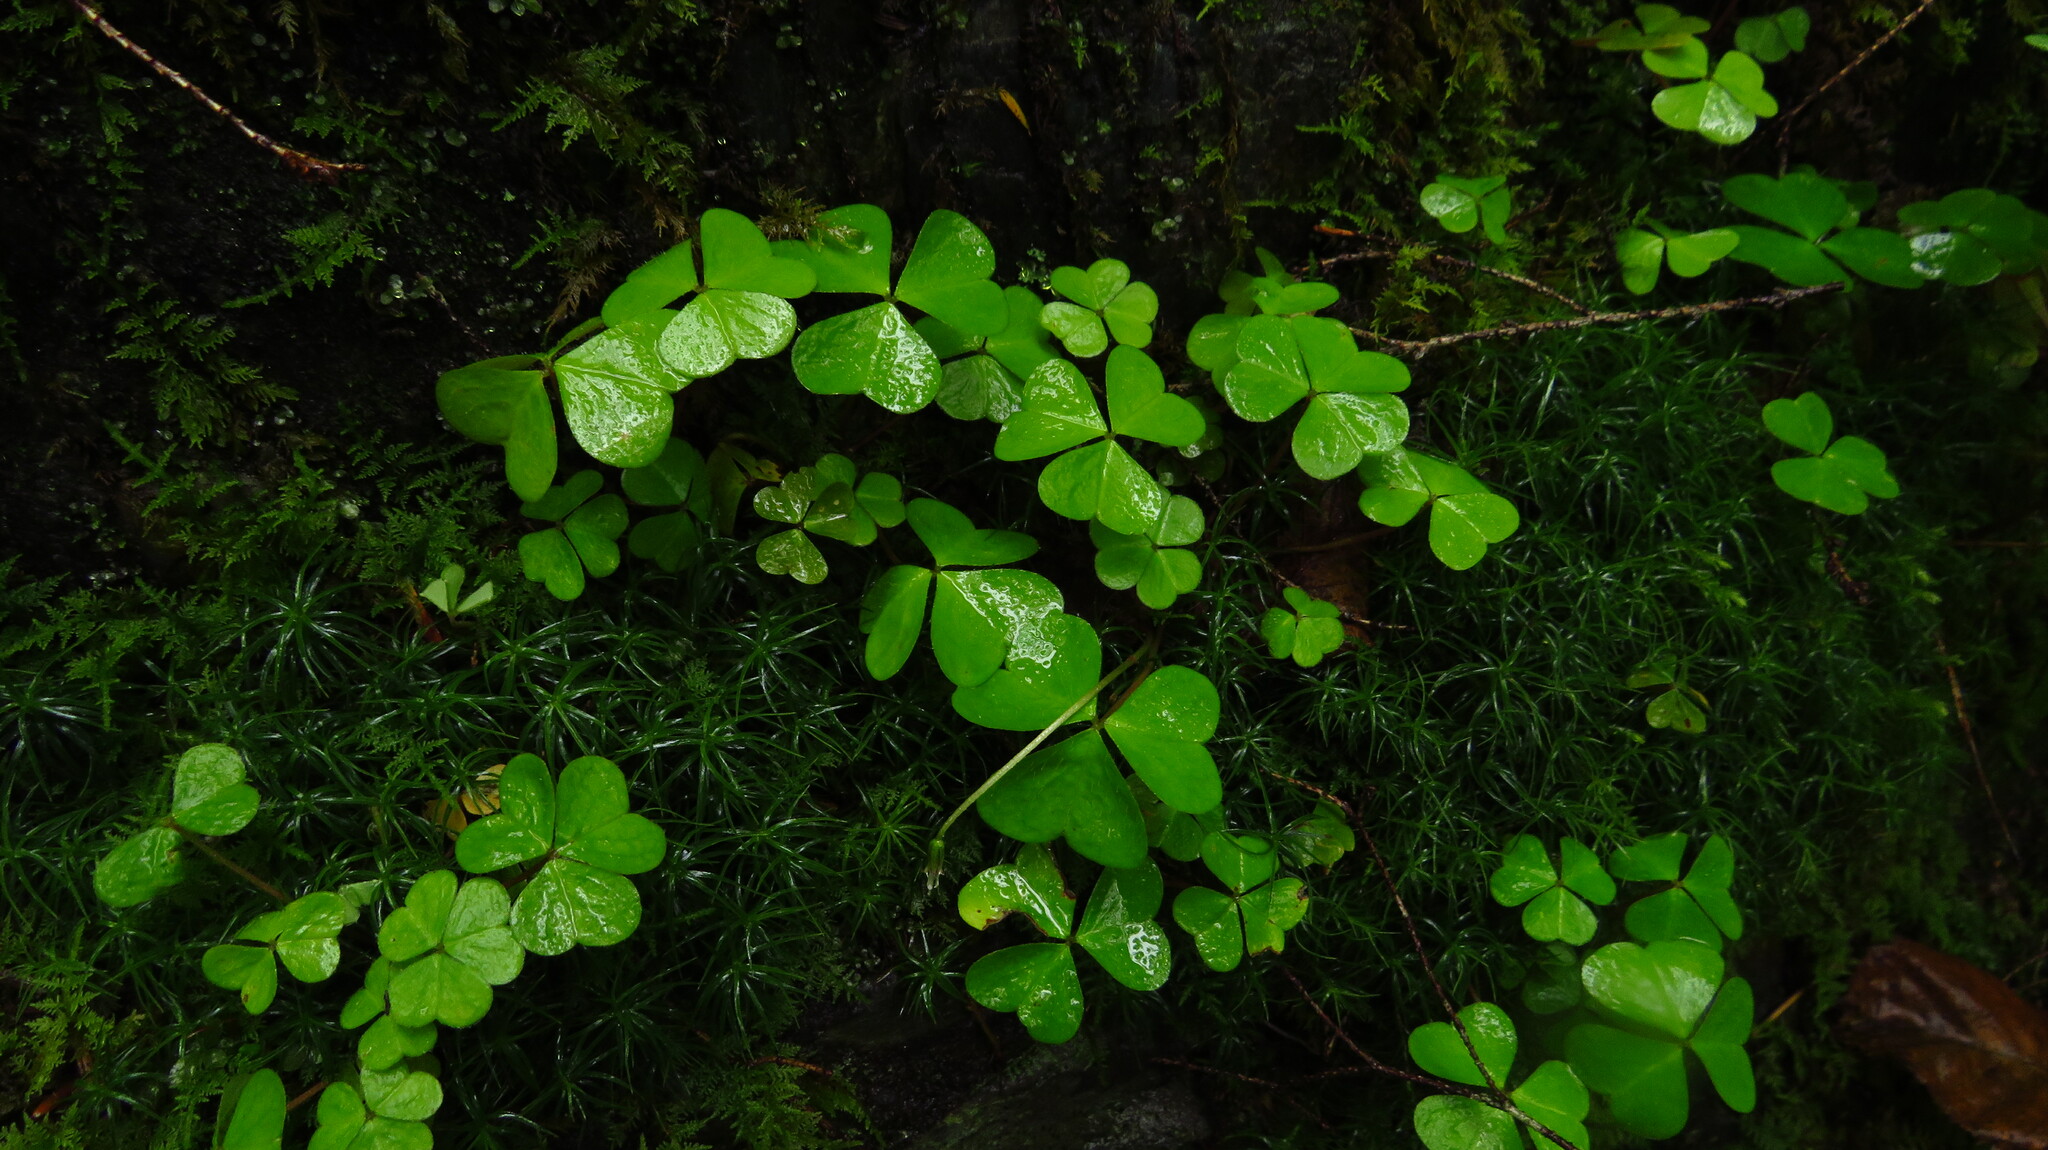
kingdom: Plantae
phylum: Tracheophyta
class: Magnoliopsida
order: Oxalidales
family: Oxalidaceae
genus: Oxalis
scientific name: Oxalis montana
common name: American wood-sorrel
